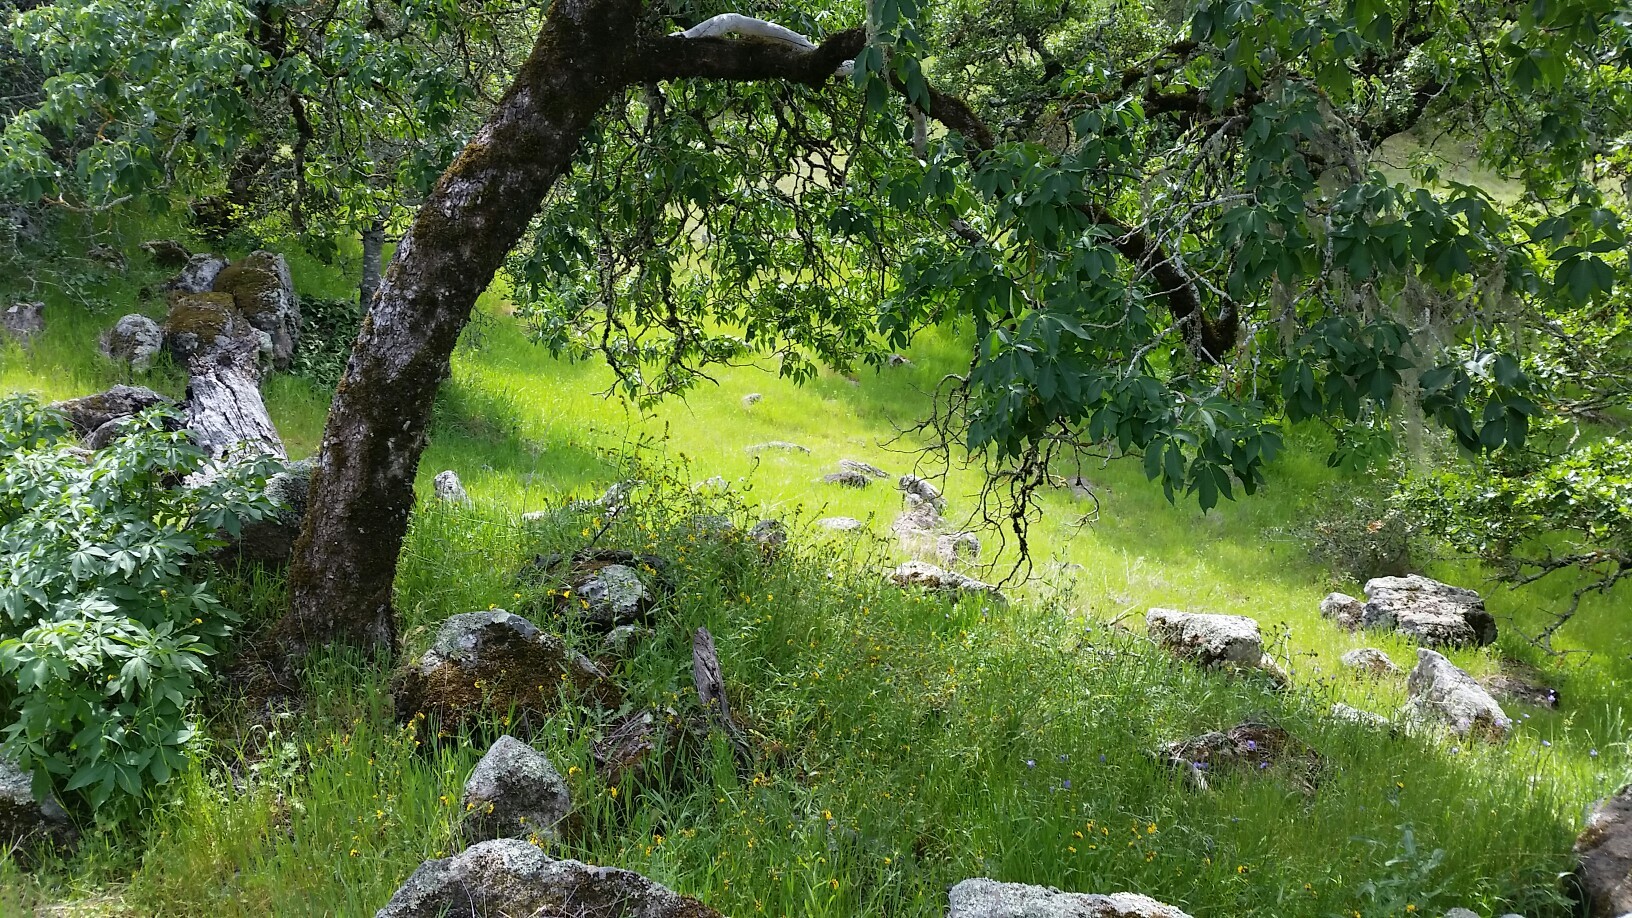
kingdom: Plantae
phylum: Tracheophyta
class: Magnoliopsida
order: Sapindales
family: Sapindaceae
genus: Aesculus
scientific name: Aesculus californica
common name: California buckeye
